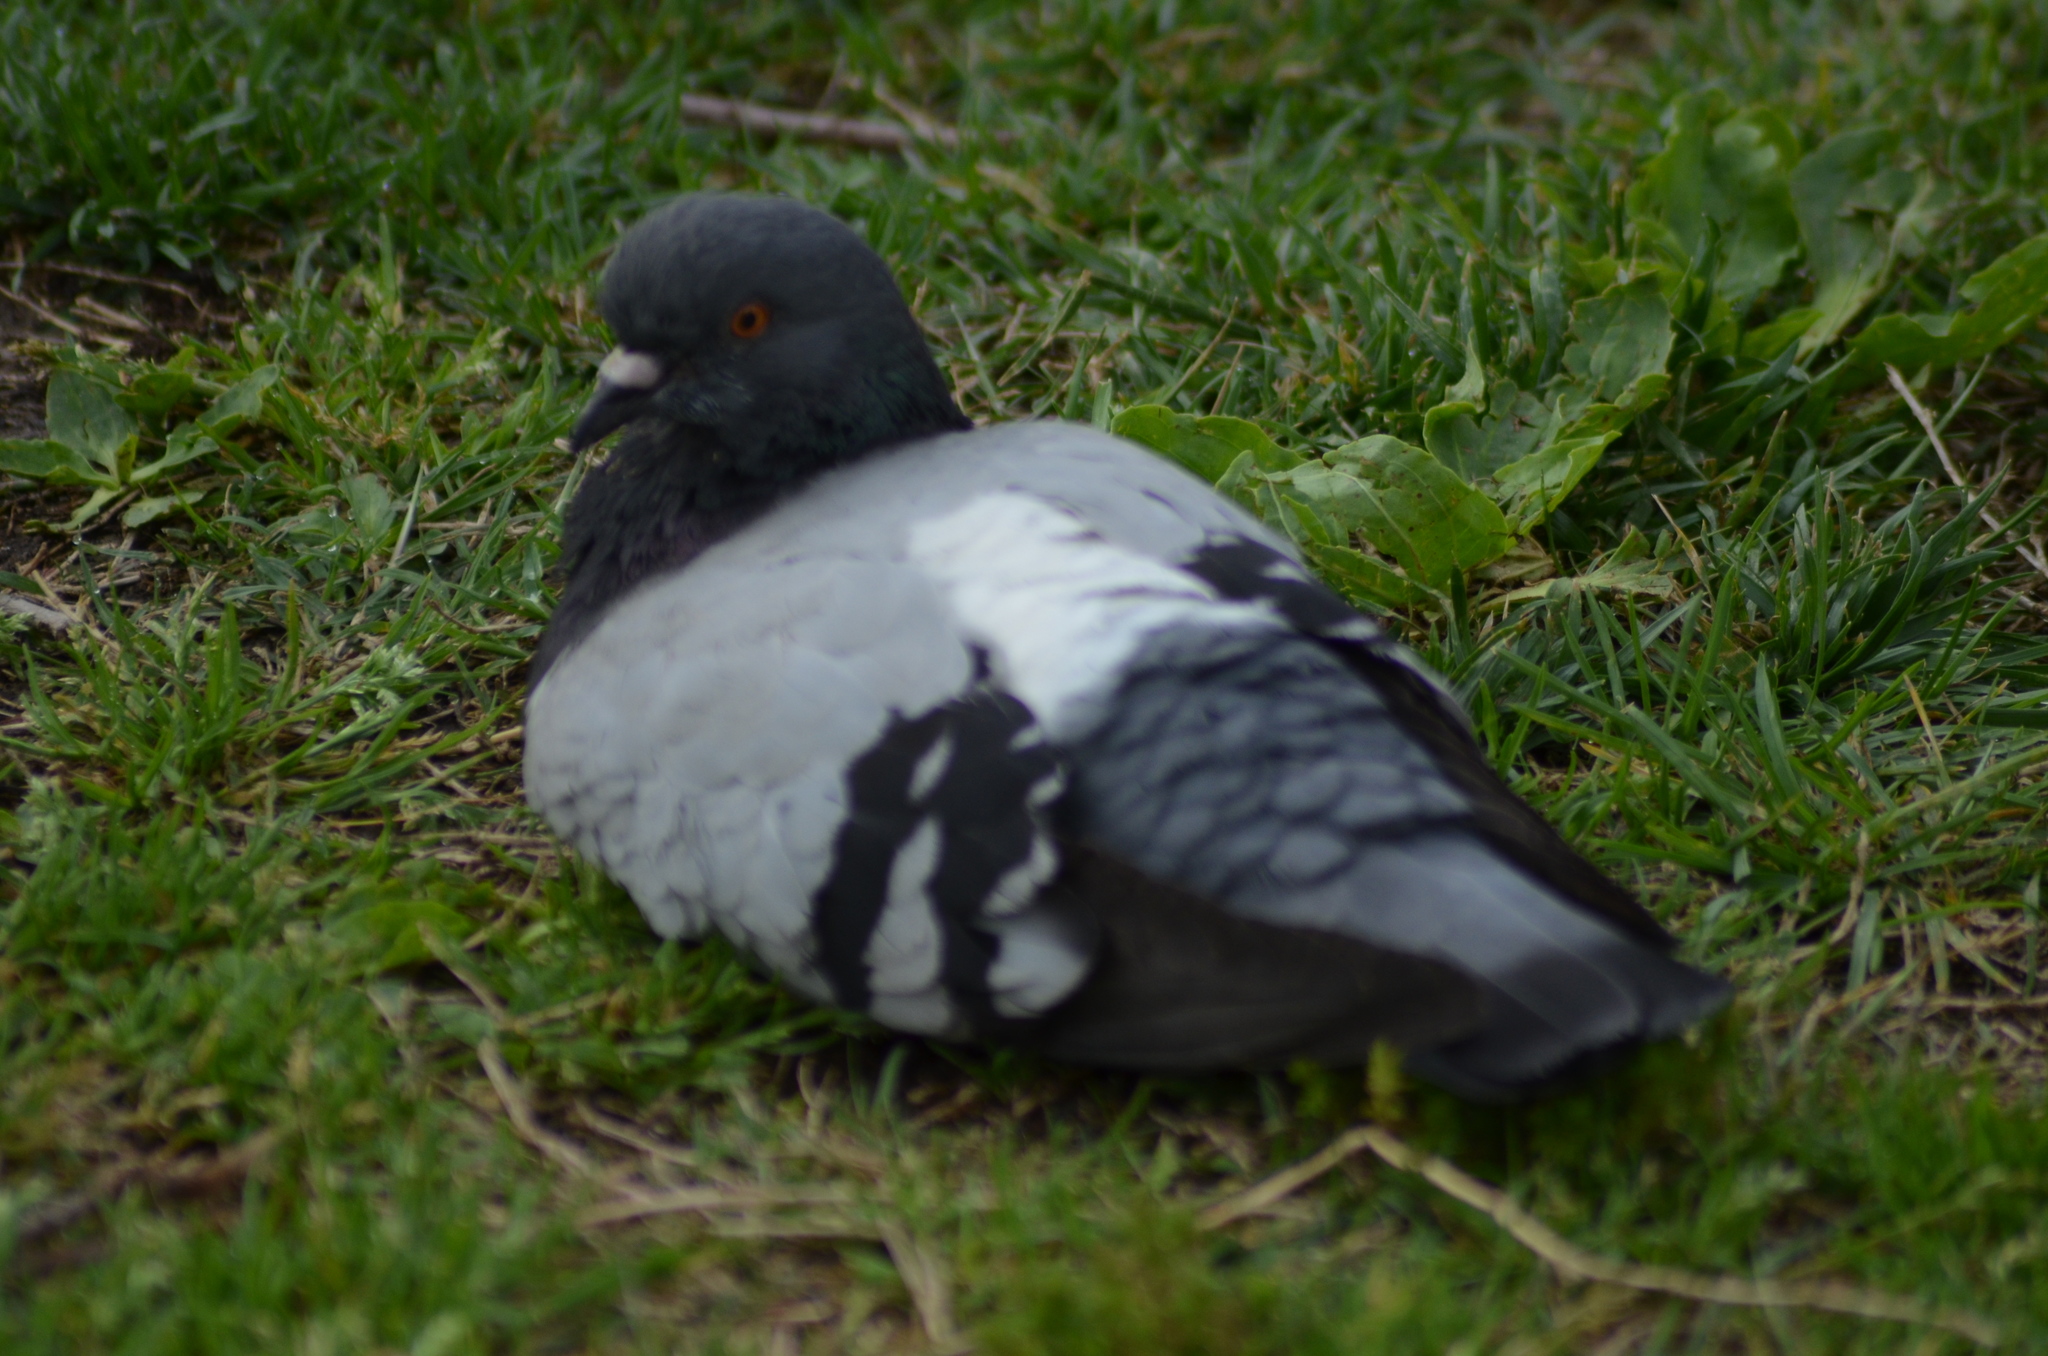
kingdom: Animalia
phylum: Chordata
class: Aves
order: Columbiformes
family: Columbidae
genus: Columba
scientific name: Columba livia
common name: Rock pigeon
